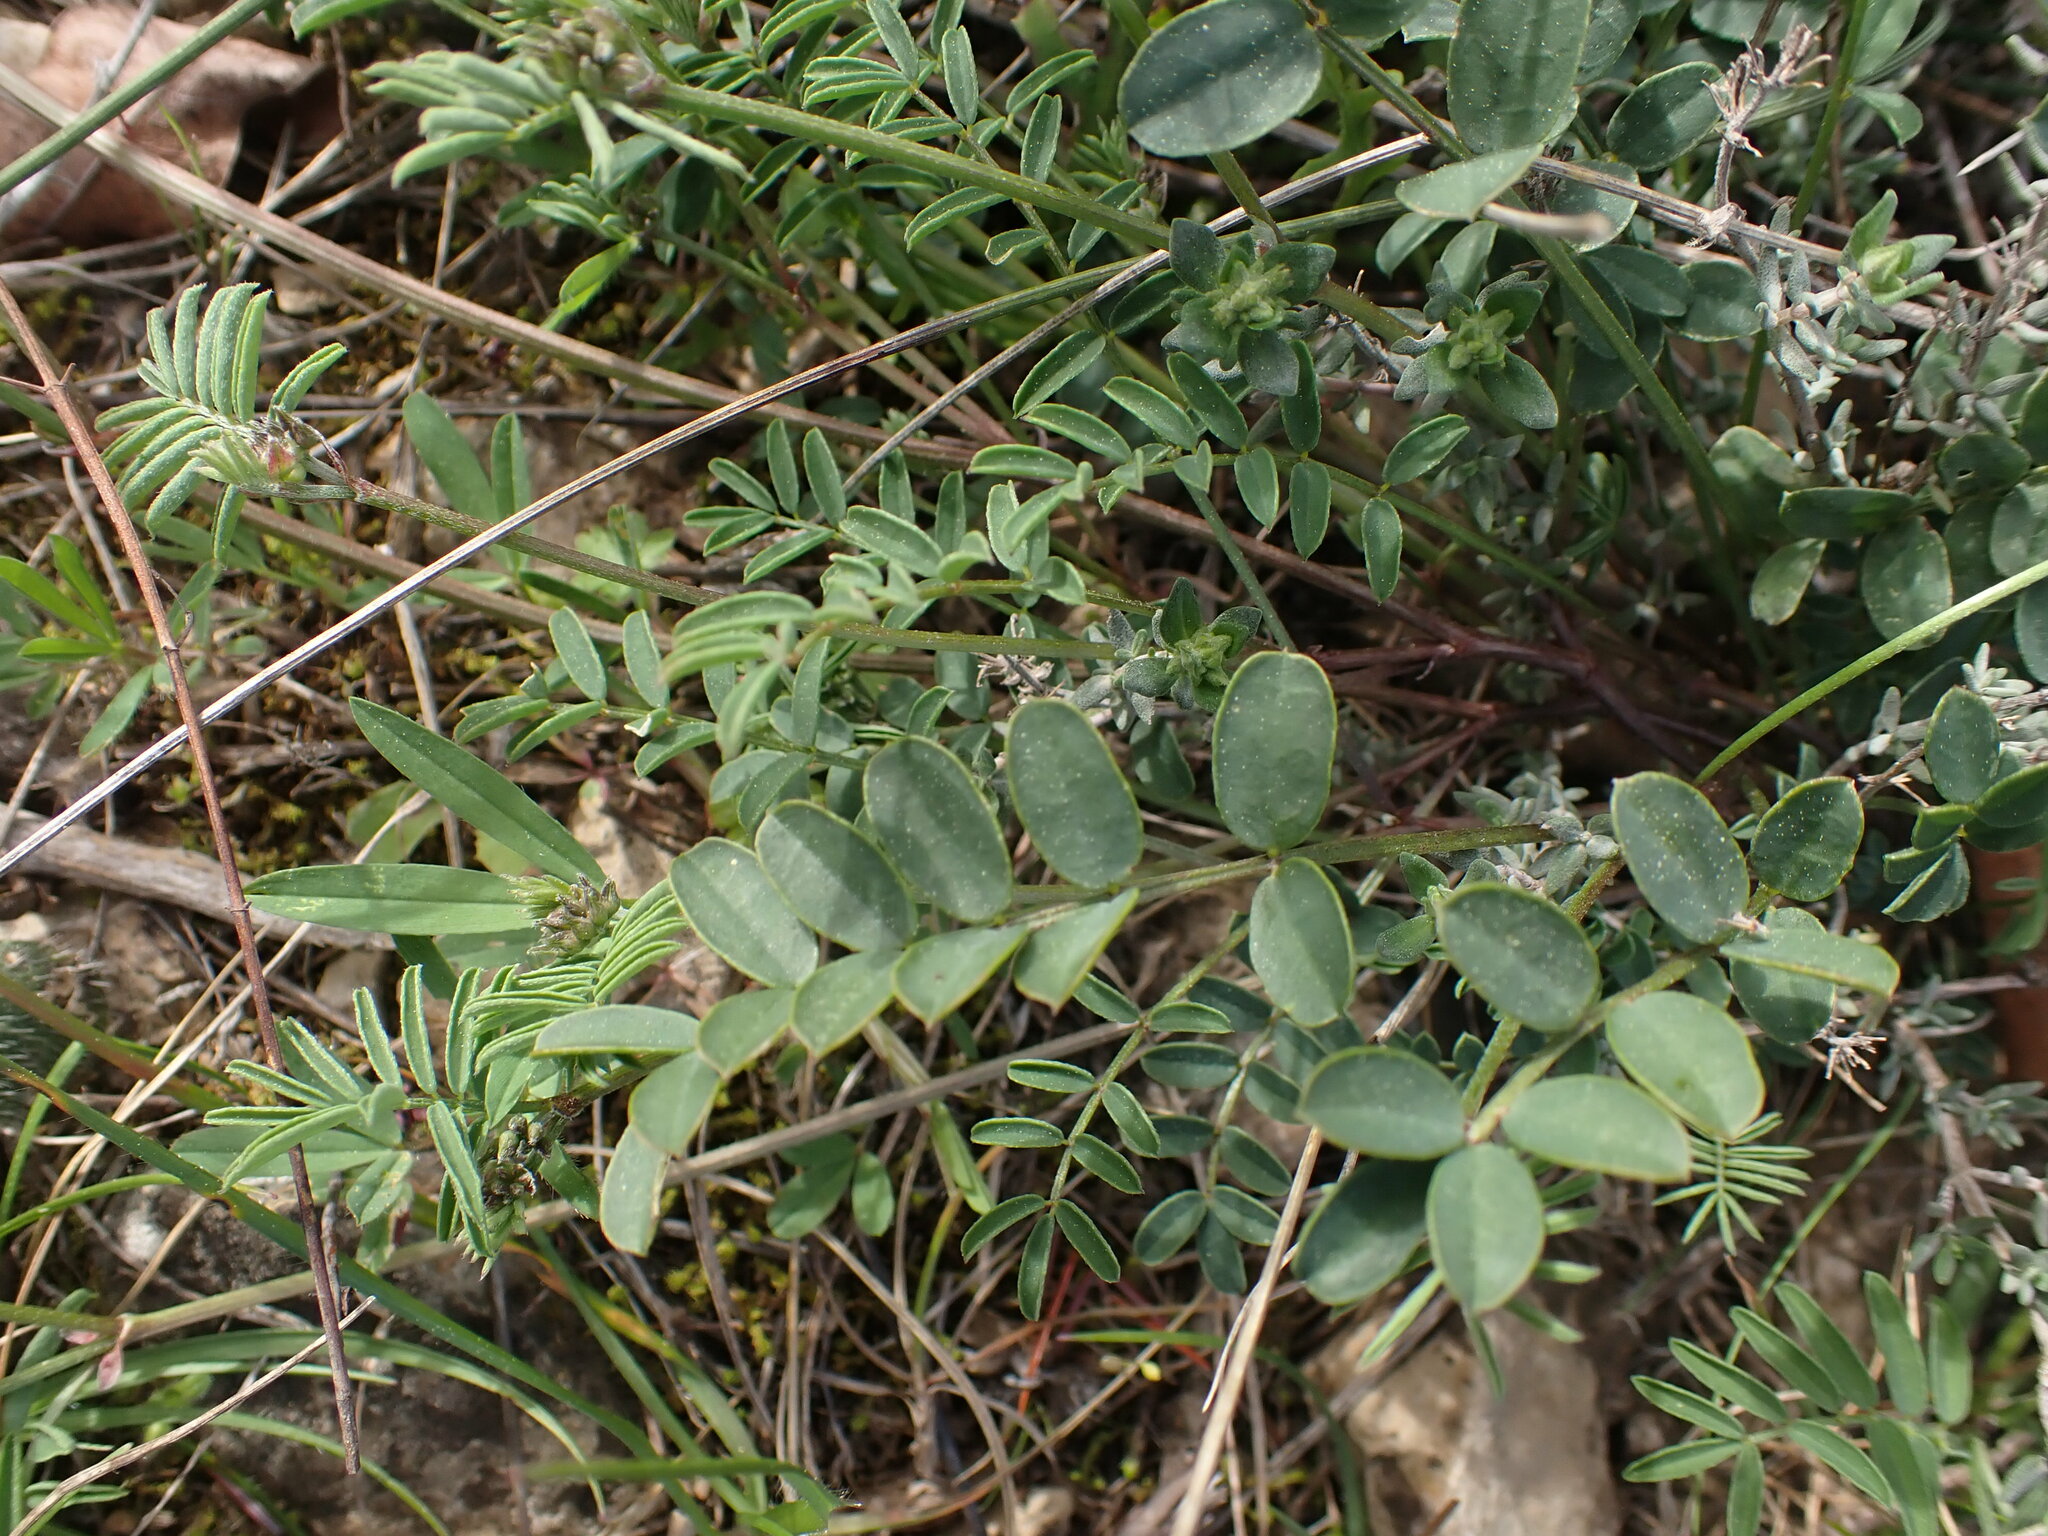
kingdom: Plantae
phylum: Tracheophyta
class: Magnoliopsida
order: Fabales
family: Fabaceae
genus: Hippocrepis
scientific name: Hippocrepis comosa
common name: Horseshoe vetch
